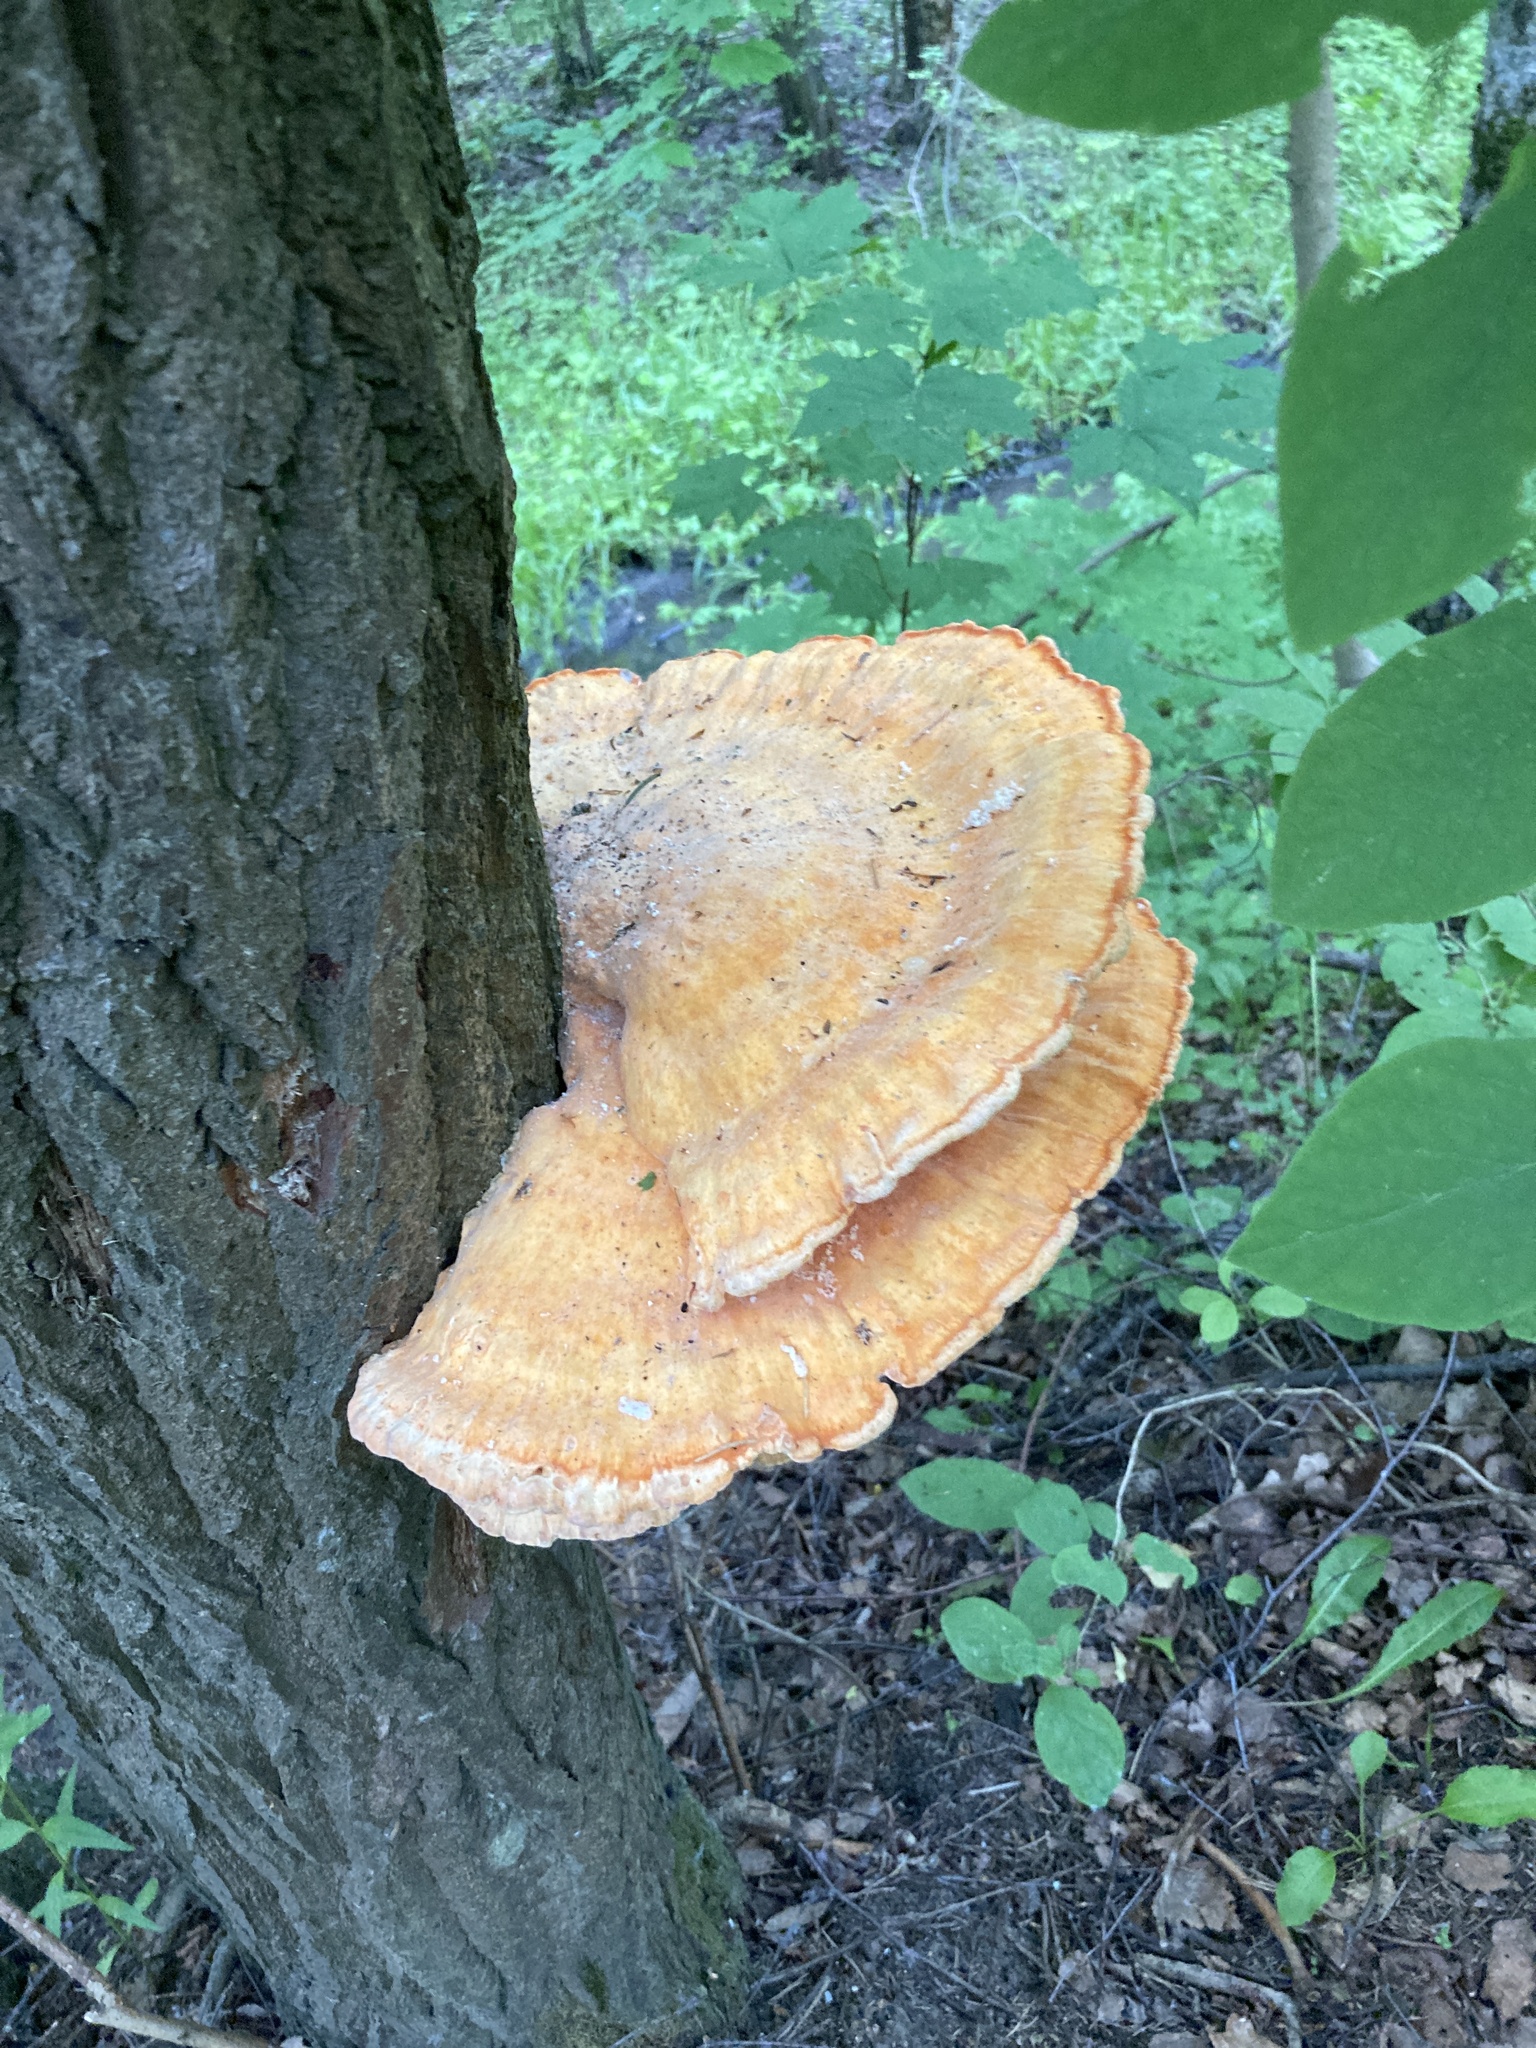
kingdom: Fungi
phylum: Basidiomycota
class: Agaricomycetes
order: Polyporales
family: Laetiporaceae
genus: Laetiporus
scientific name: Laetiporus sulphureus
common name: Chicken of the woods
